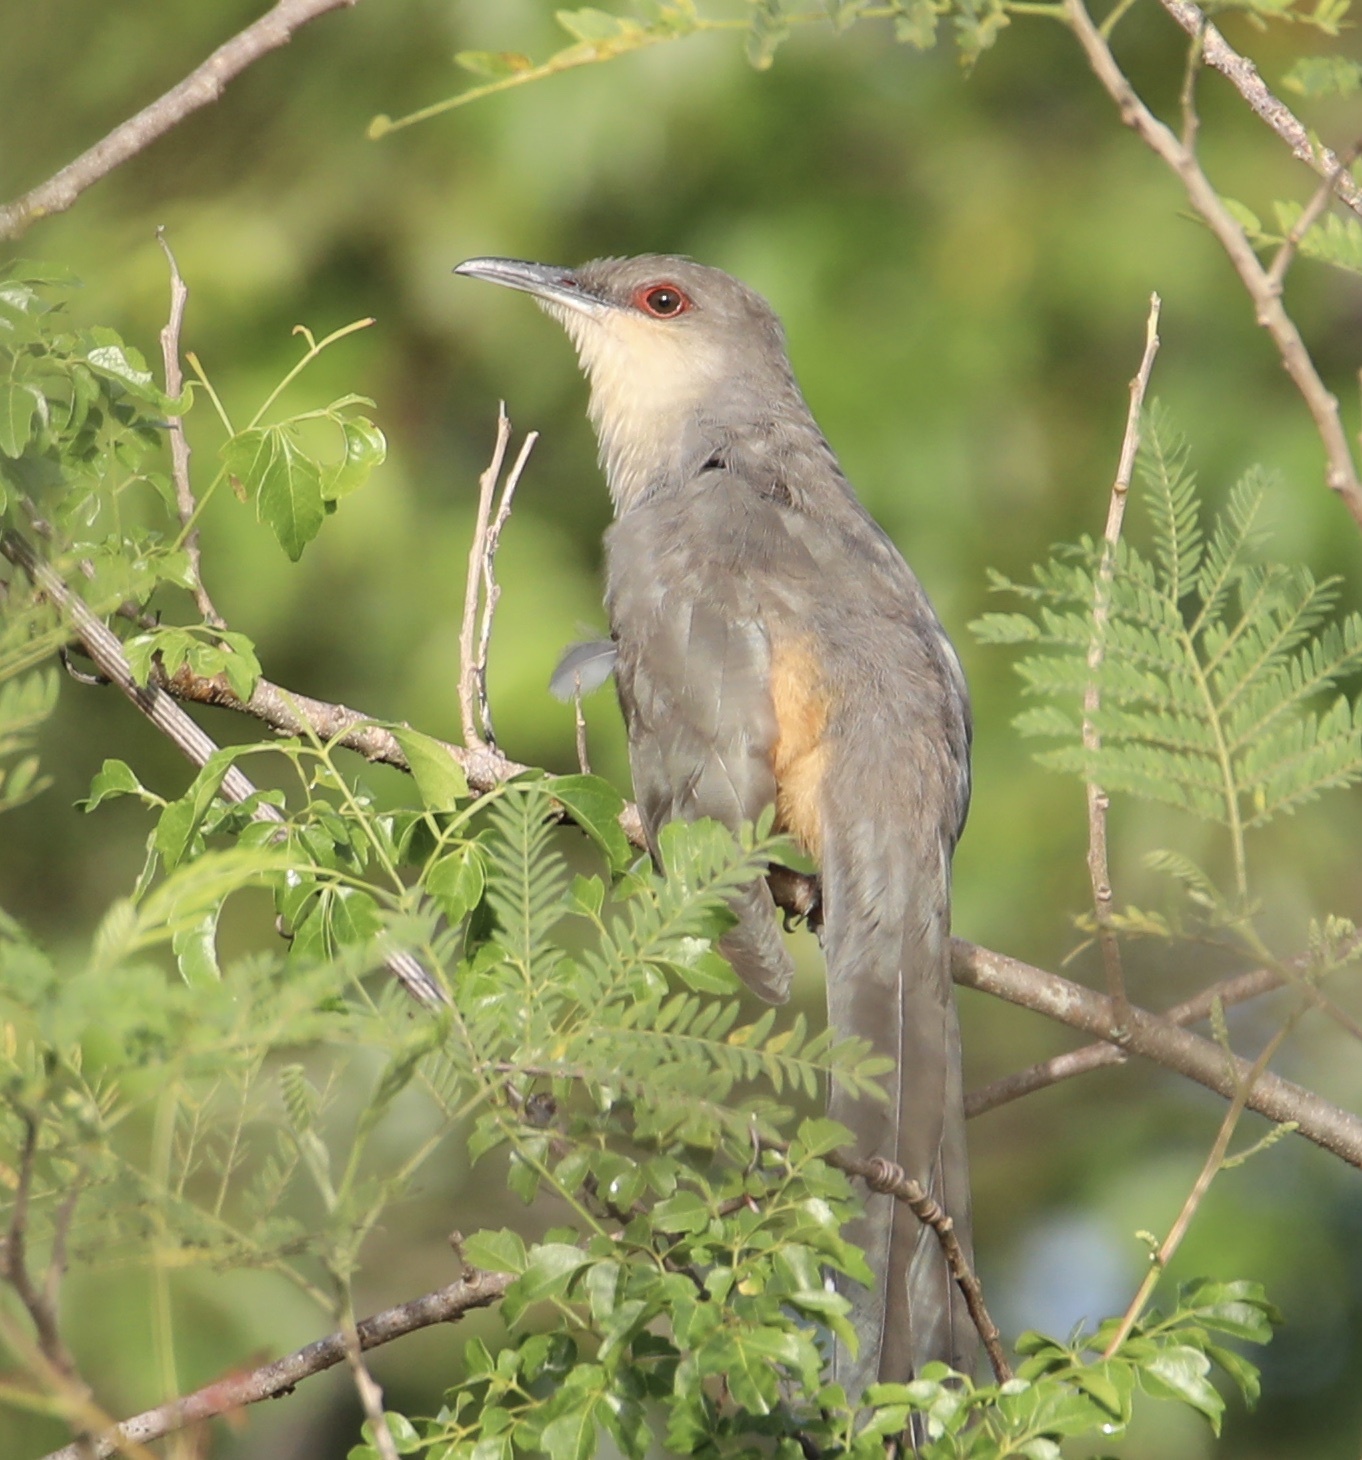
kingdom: Animalia
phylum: Chordata
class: Aves
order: Cuculiformes
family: Cuculidae
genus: Saurothera
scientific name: Saurothera longirostris
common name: Hispaniolan lizard-cuckoo
